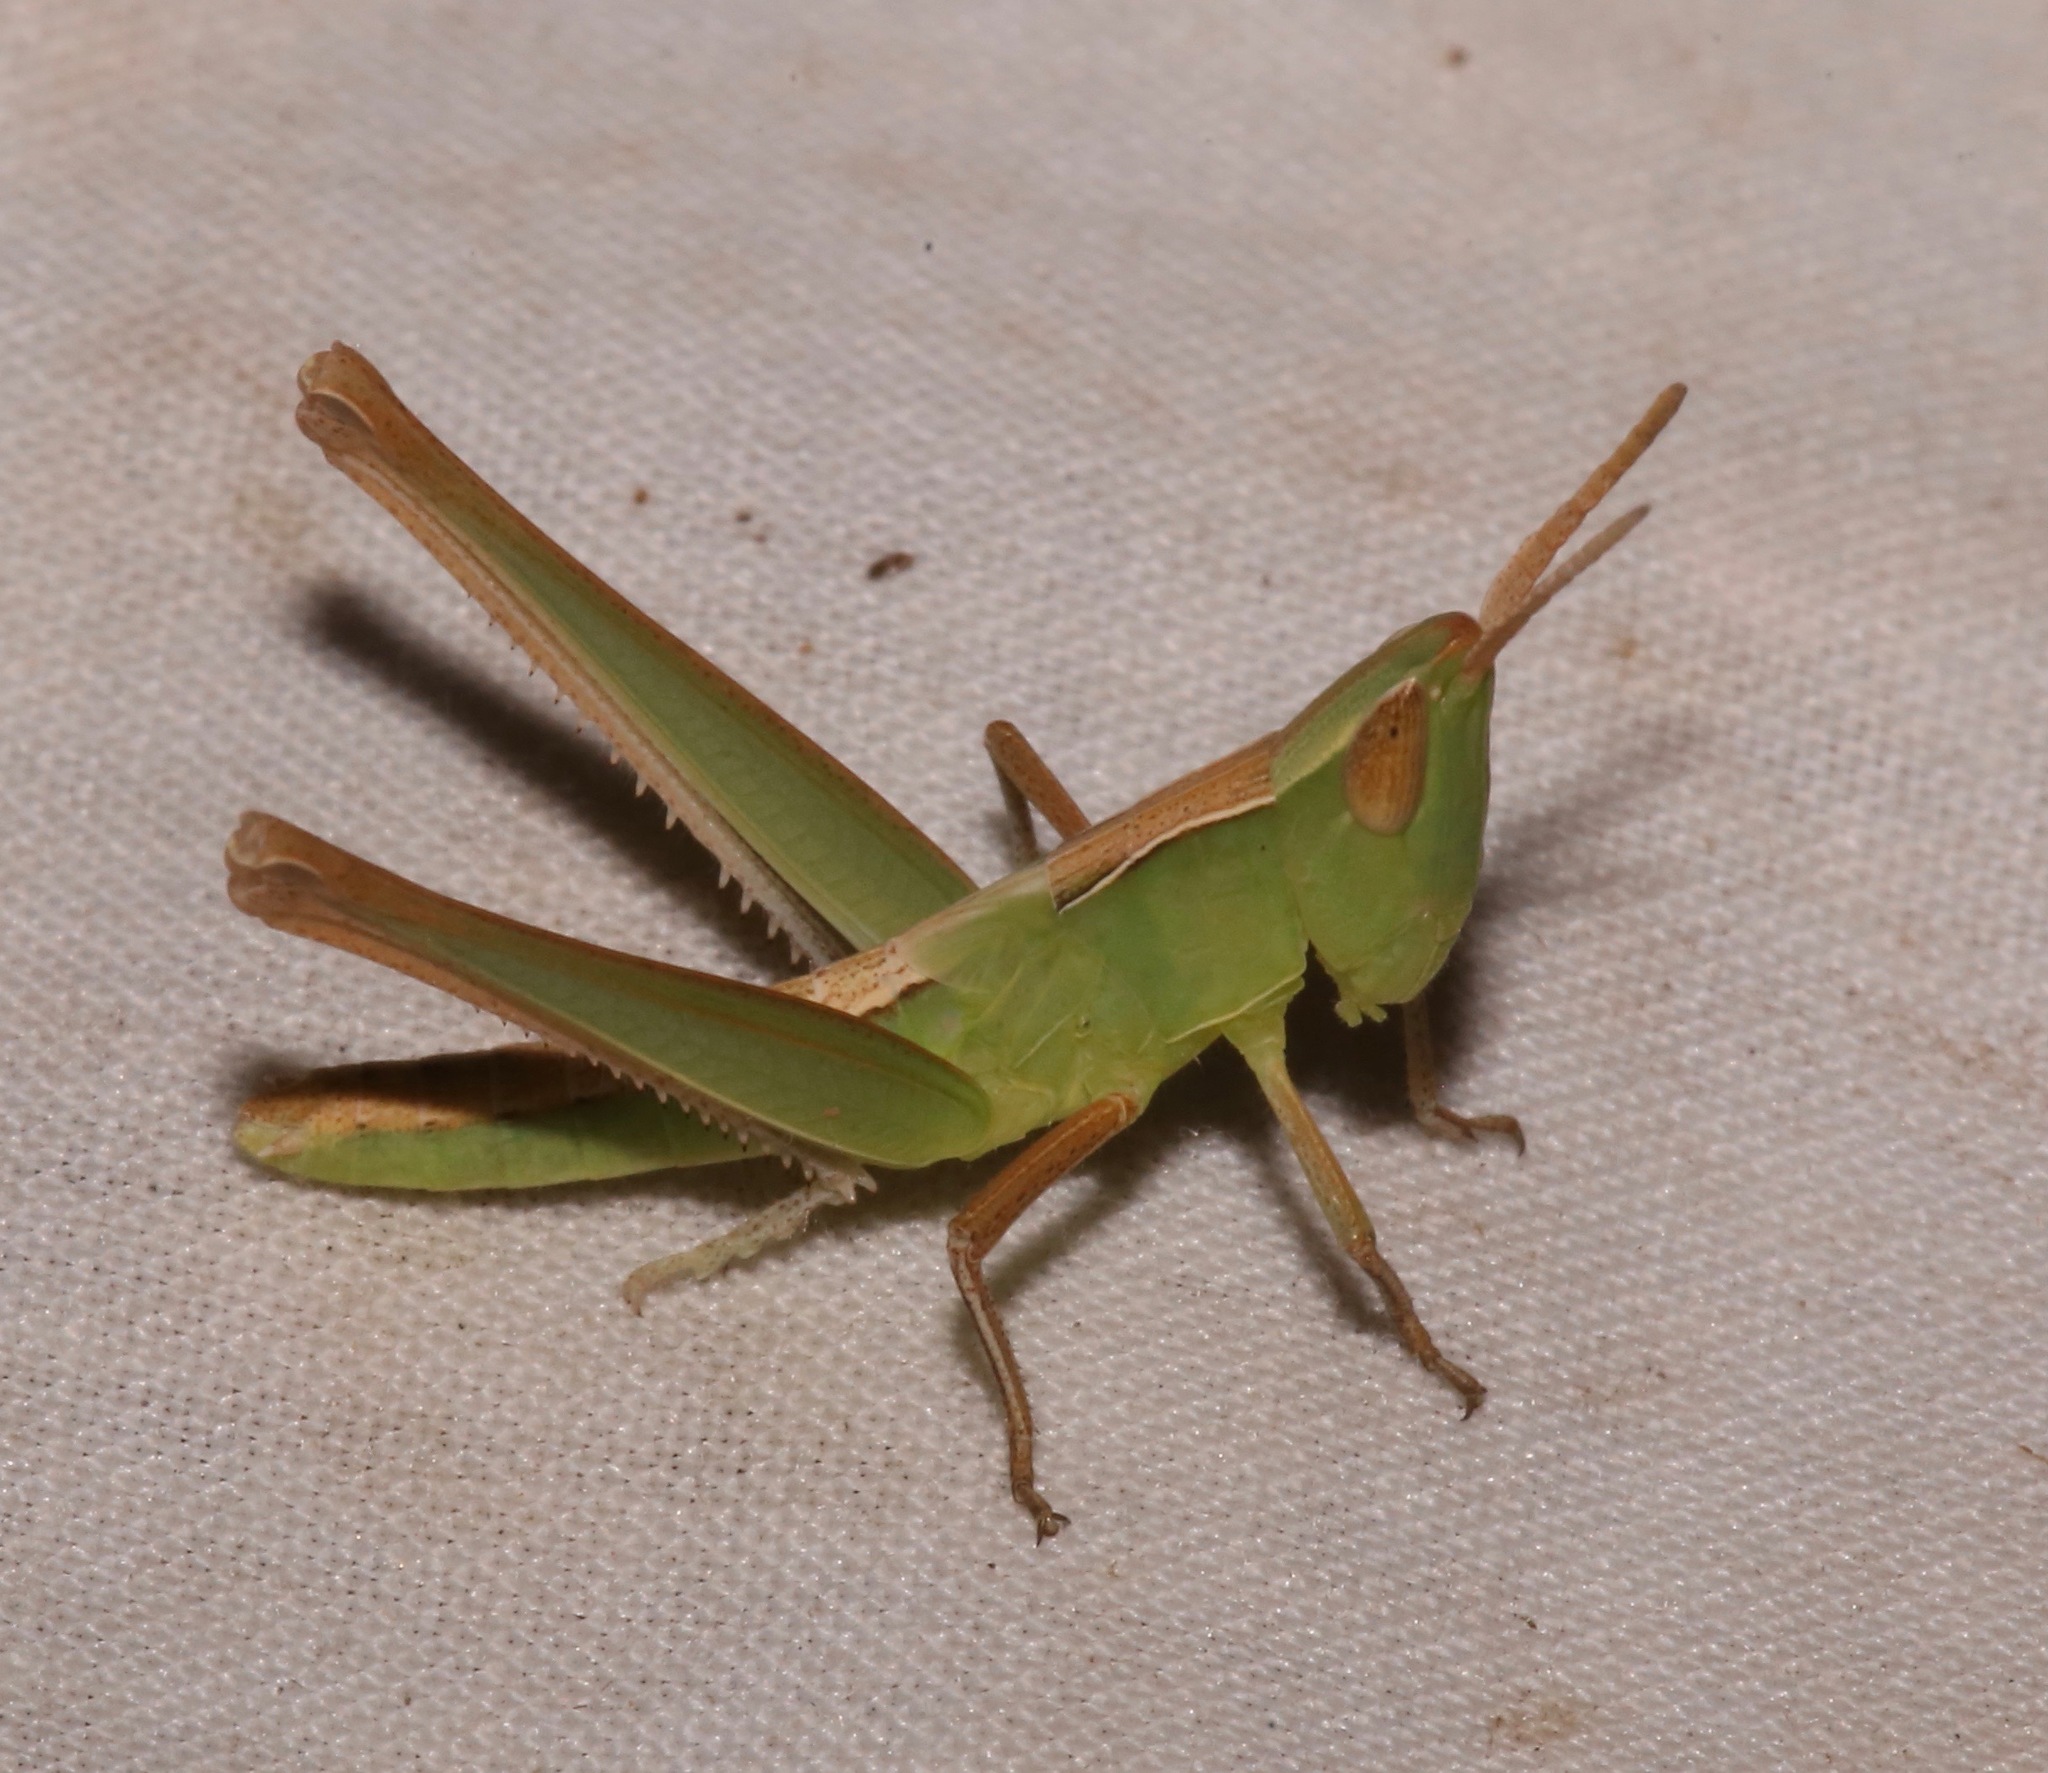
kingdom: Animalia
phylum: Arthropoda
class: Insecta
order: Orthoptera
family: Acrididae
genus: Syrbula
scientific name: Syrbula montezuma
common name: Montezuma's grasshopper
